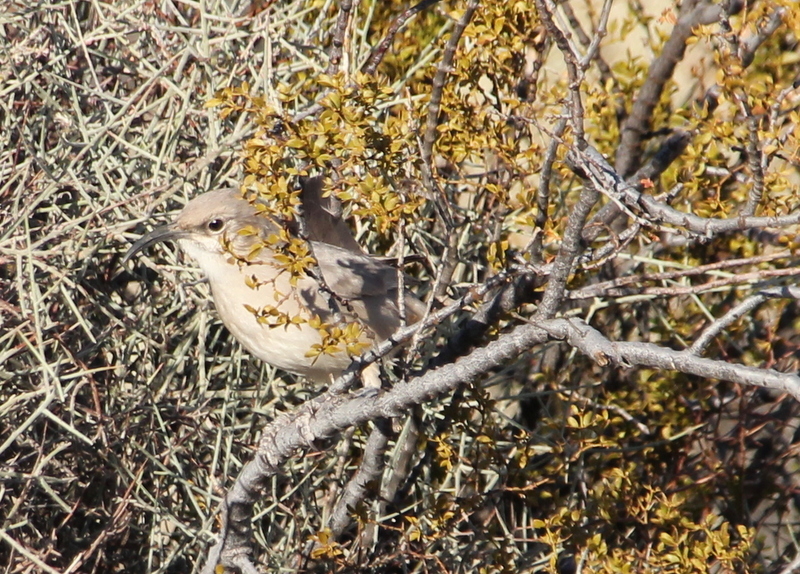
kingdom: Animalia
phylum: Chordata
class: Aves
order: Passeriformes
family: Mimidae
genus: Toxostoma
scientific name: Toxostoma lecontei
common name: Le conte's thrasher
